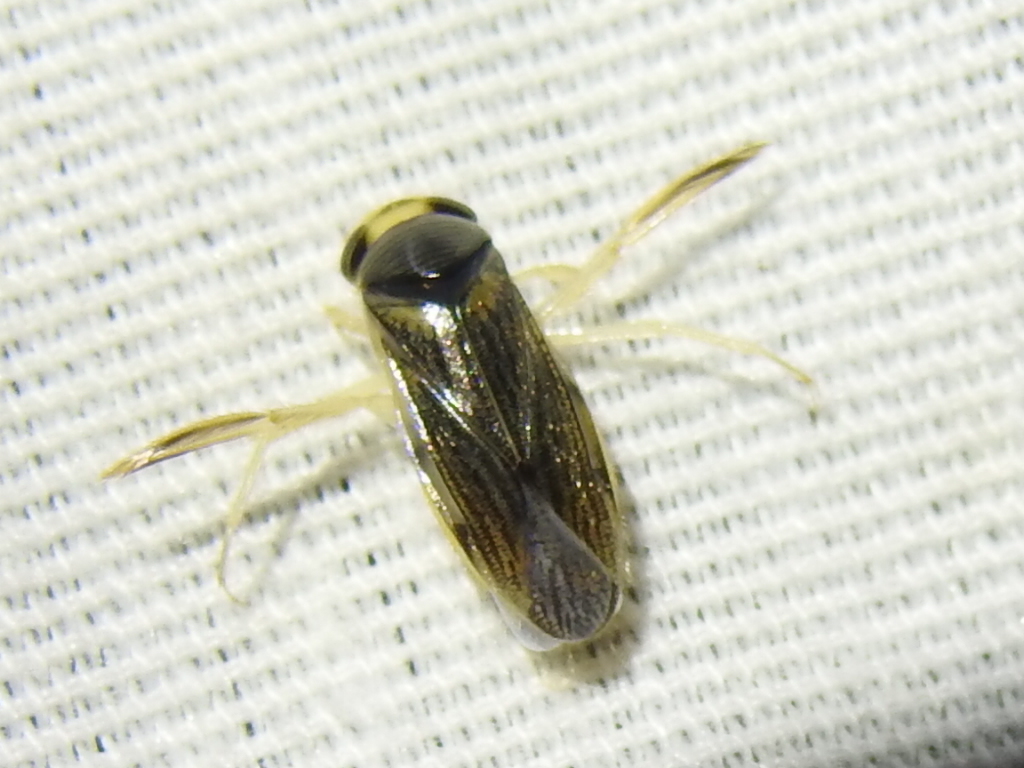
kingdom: Animalia
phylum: Arthropoda
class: Insecta
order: Hemiptera
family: Corixidae
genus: Corisella
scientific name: Corisella edulis
